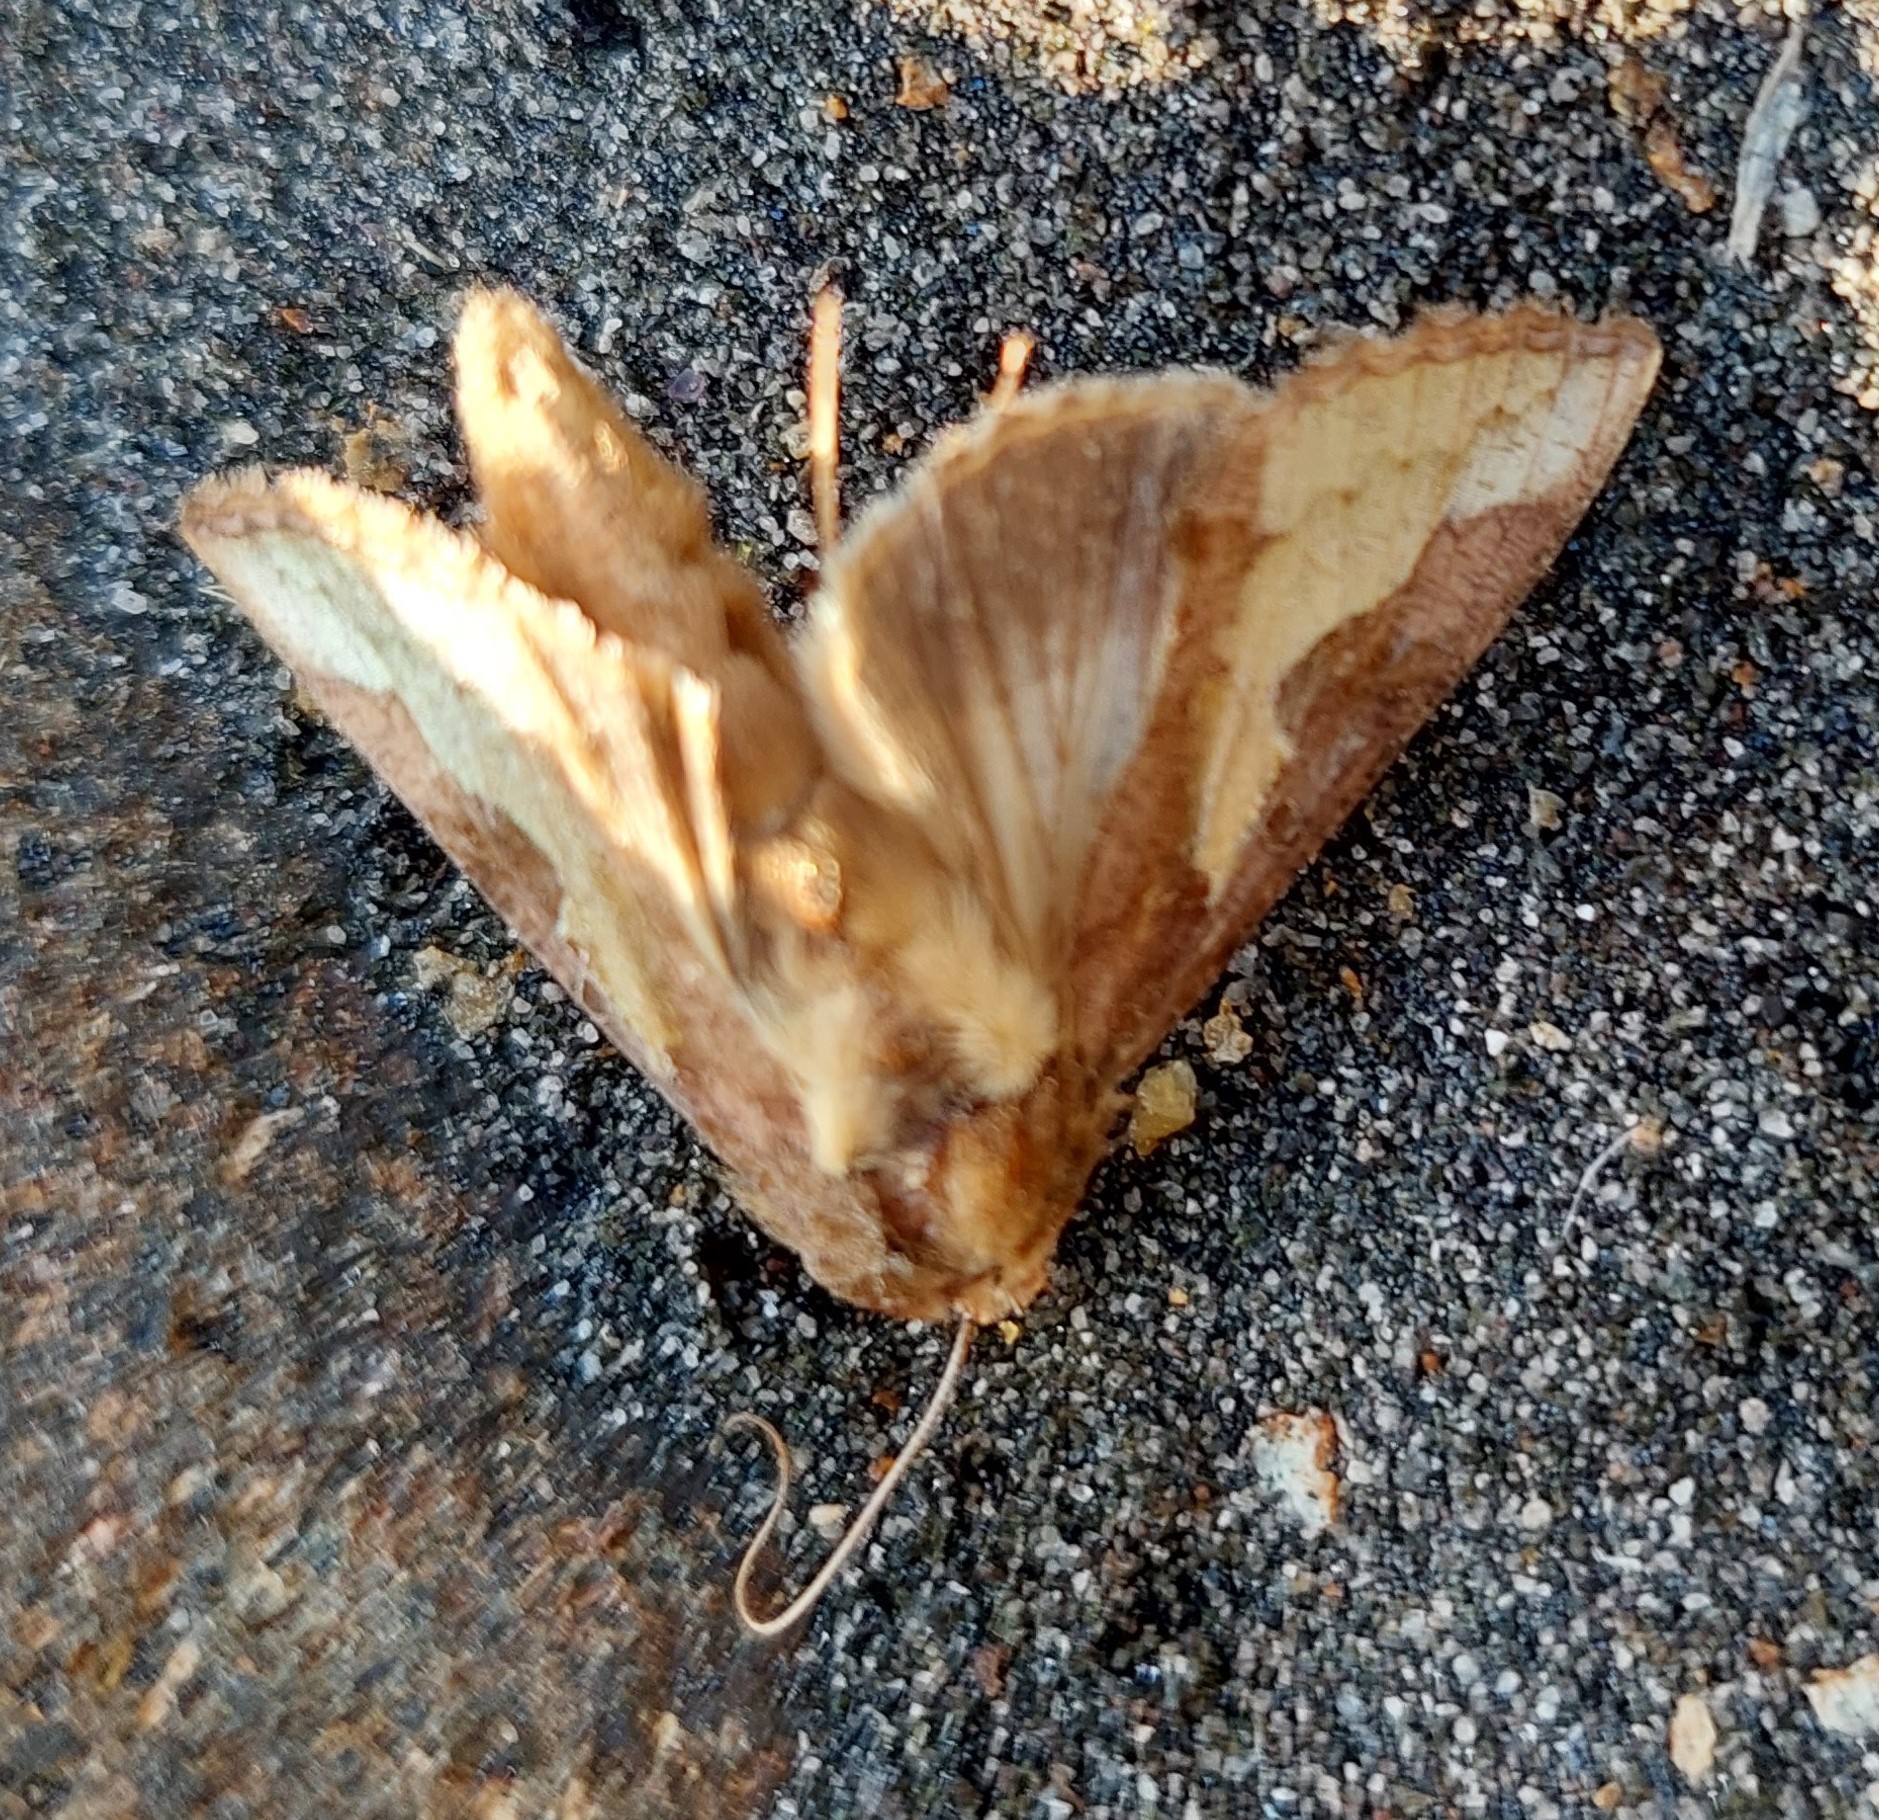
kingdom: Animalia
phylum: Arthropoda
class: Insecta
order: Lepidoptera
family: Noctuidae
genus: Thysanoplusia
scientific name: Thysanoplusia orichalcea
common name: Slender burnished brass, golden plusia
